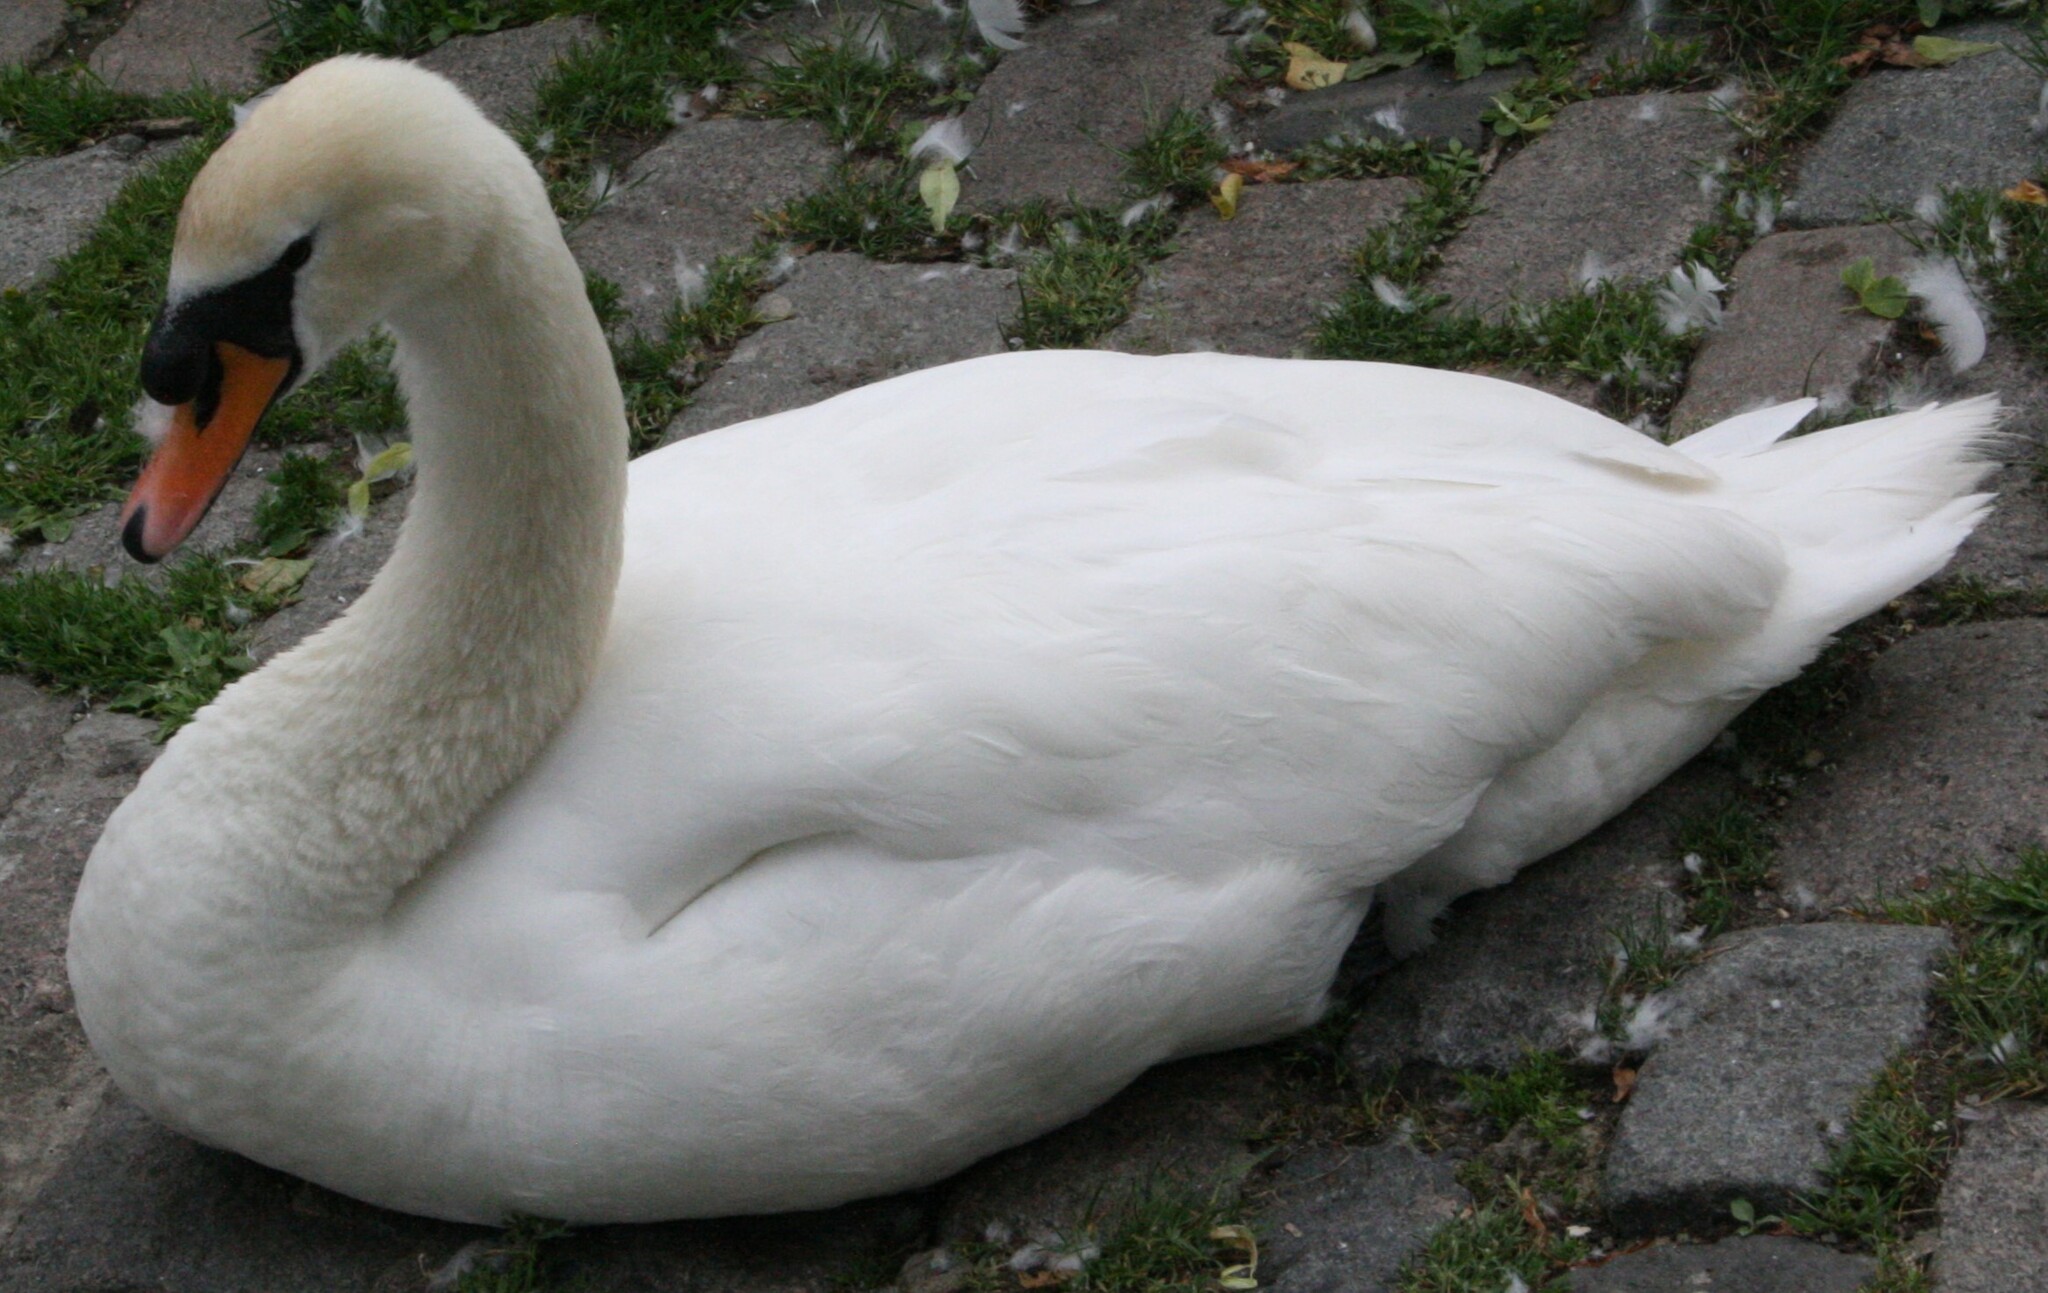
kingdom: Animalia
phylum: Chordata
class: Aves
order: Anseriformes
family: Anatidae
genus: Cygnus
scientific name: Cygnus olor
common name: Mute swan
